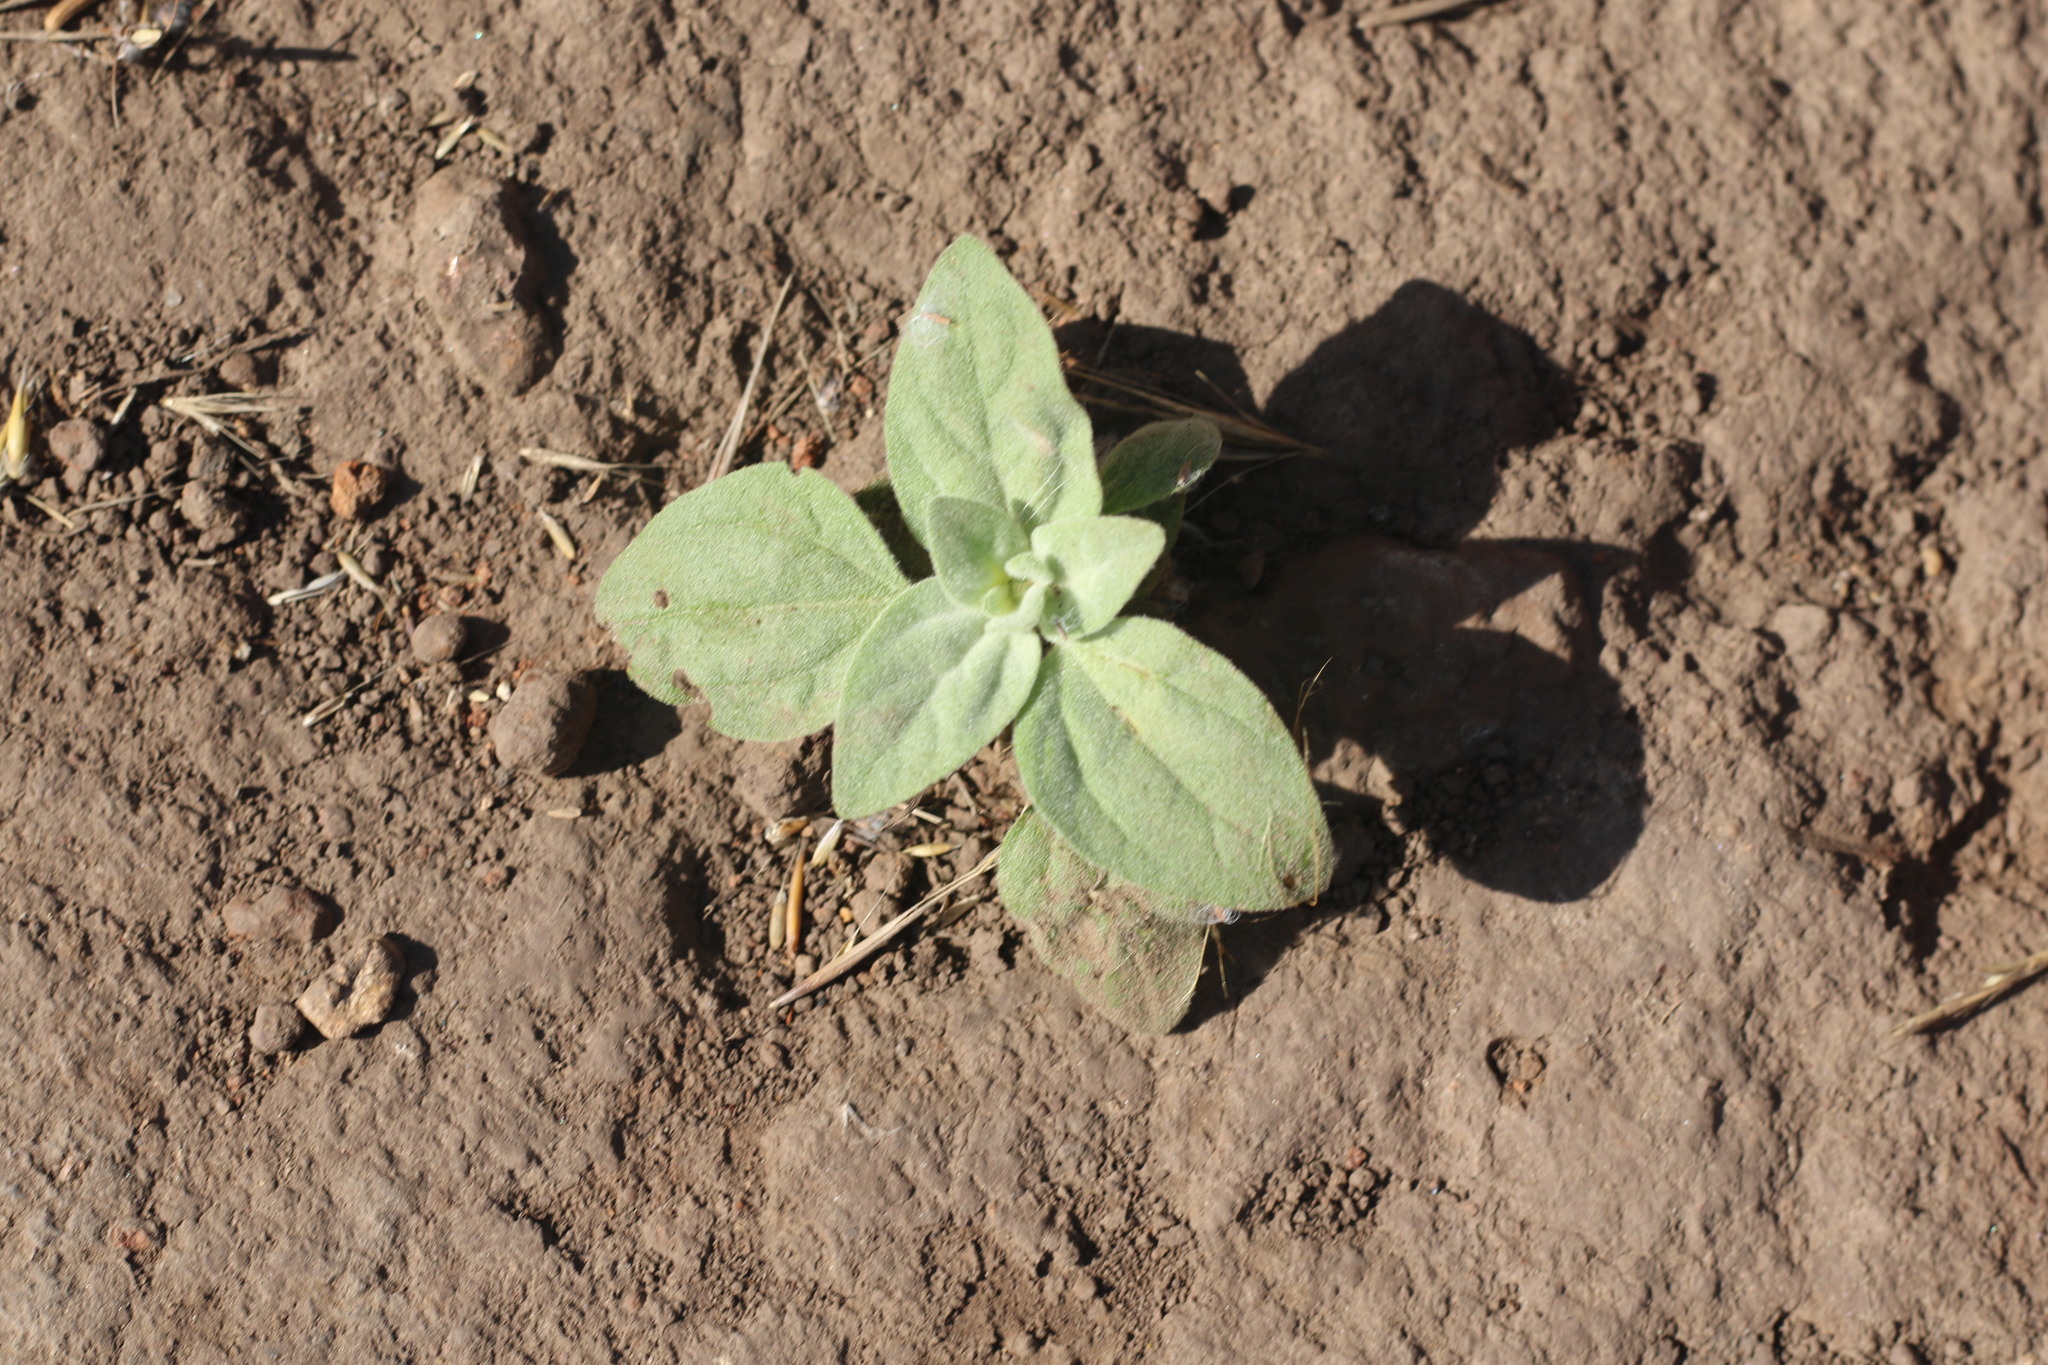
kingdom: Plantae
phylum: Tracheophyta
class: Magnoliopsida
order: Malpighiales
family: Euphorbiaceae
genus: Croton
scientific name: Croton setiger
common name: Dove weed
